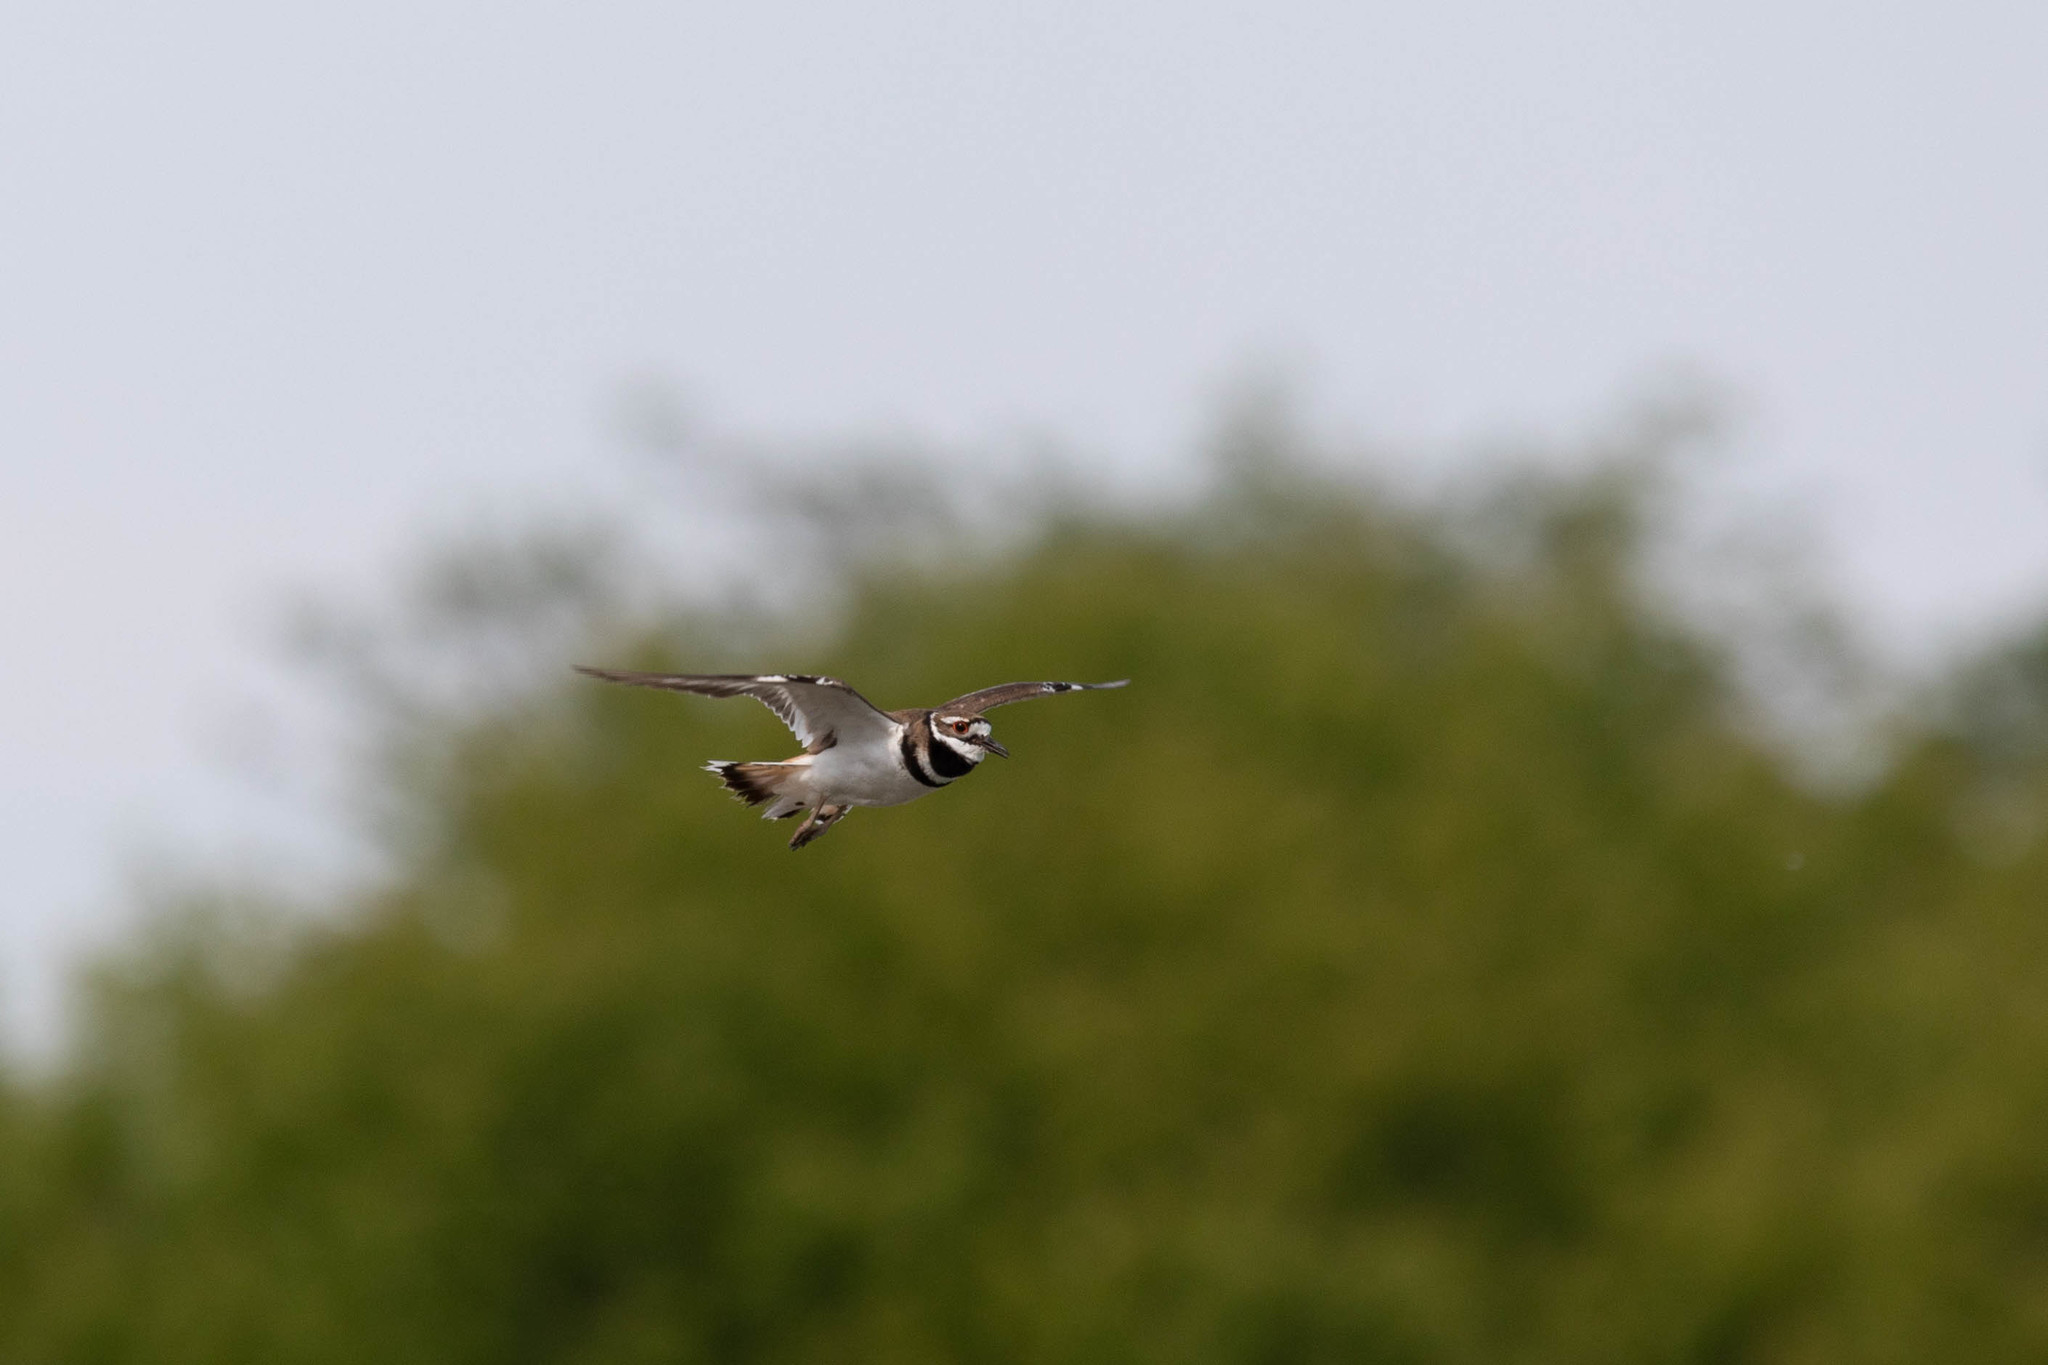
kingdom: Animalia
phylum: Chordata
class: Aves
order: Charadriiformes
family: Charadriidae
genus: Charadrius
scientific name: Charadrius vociferus
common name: Killdeer
